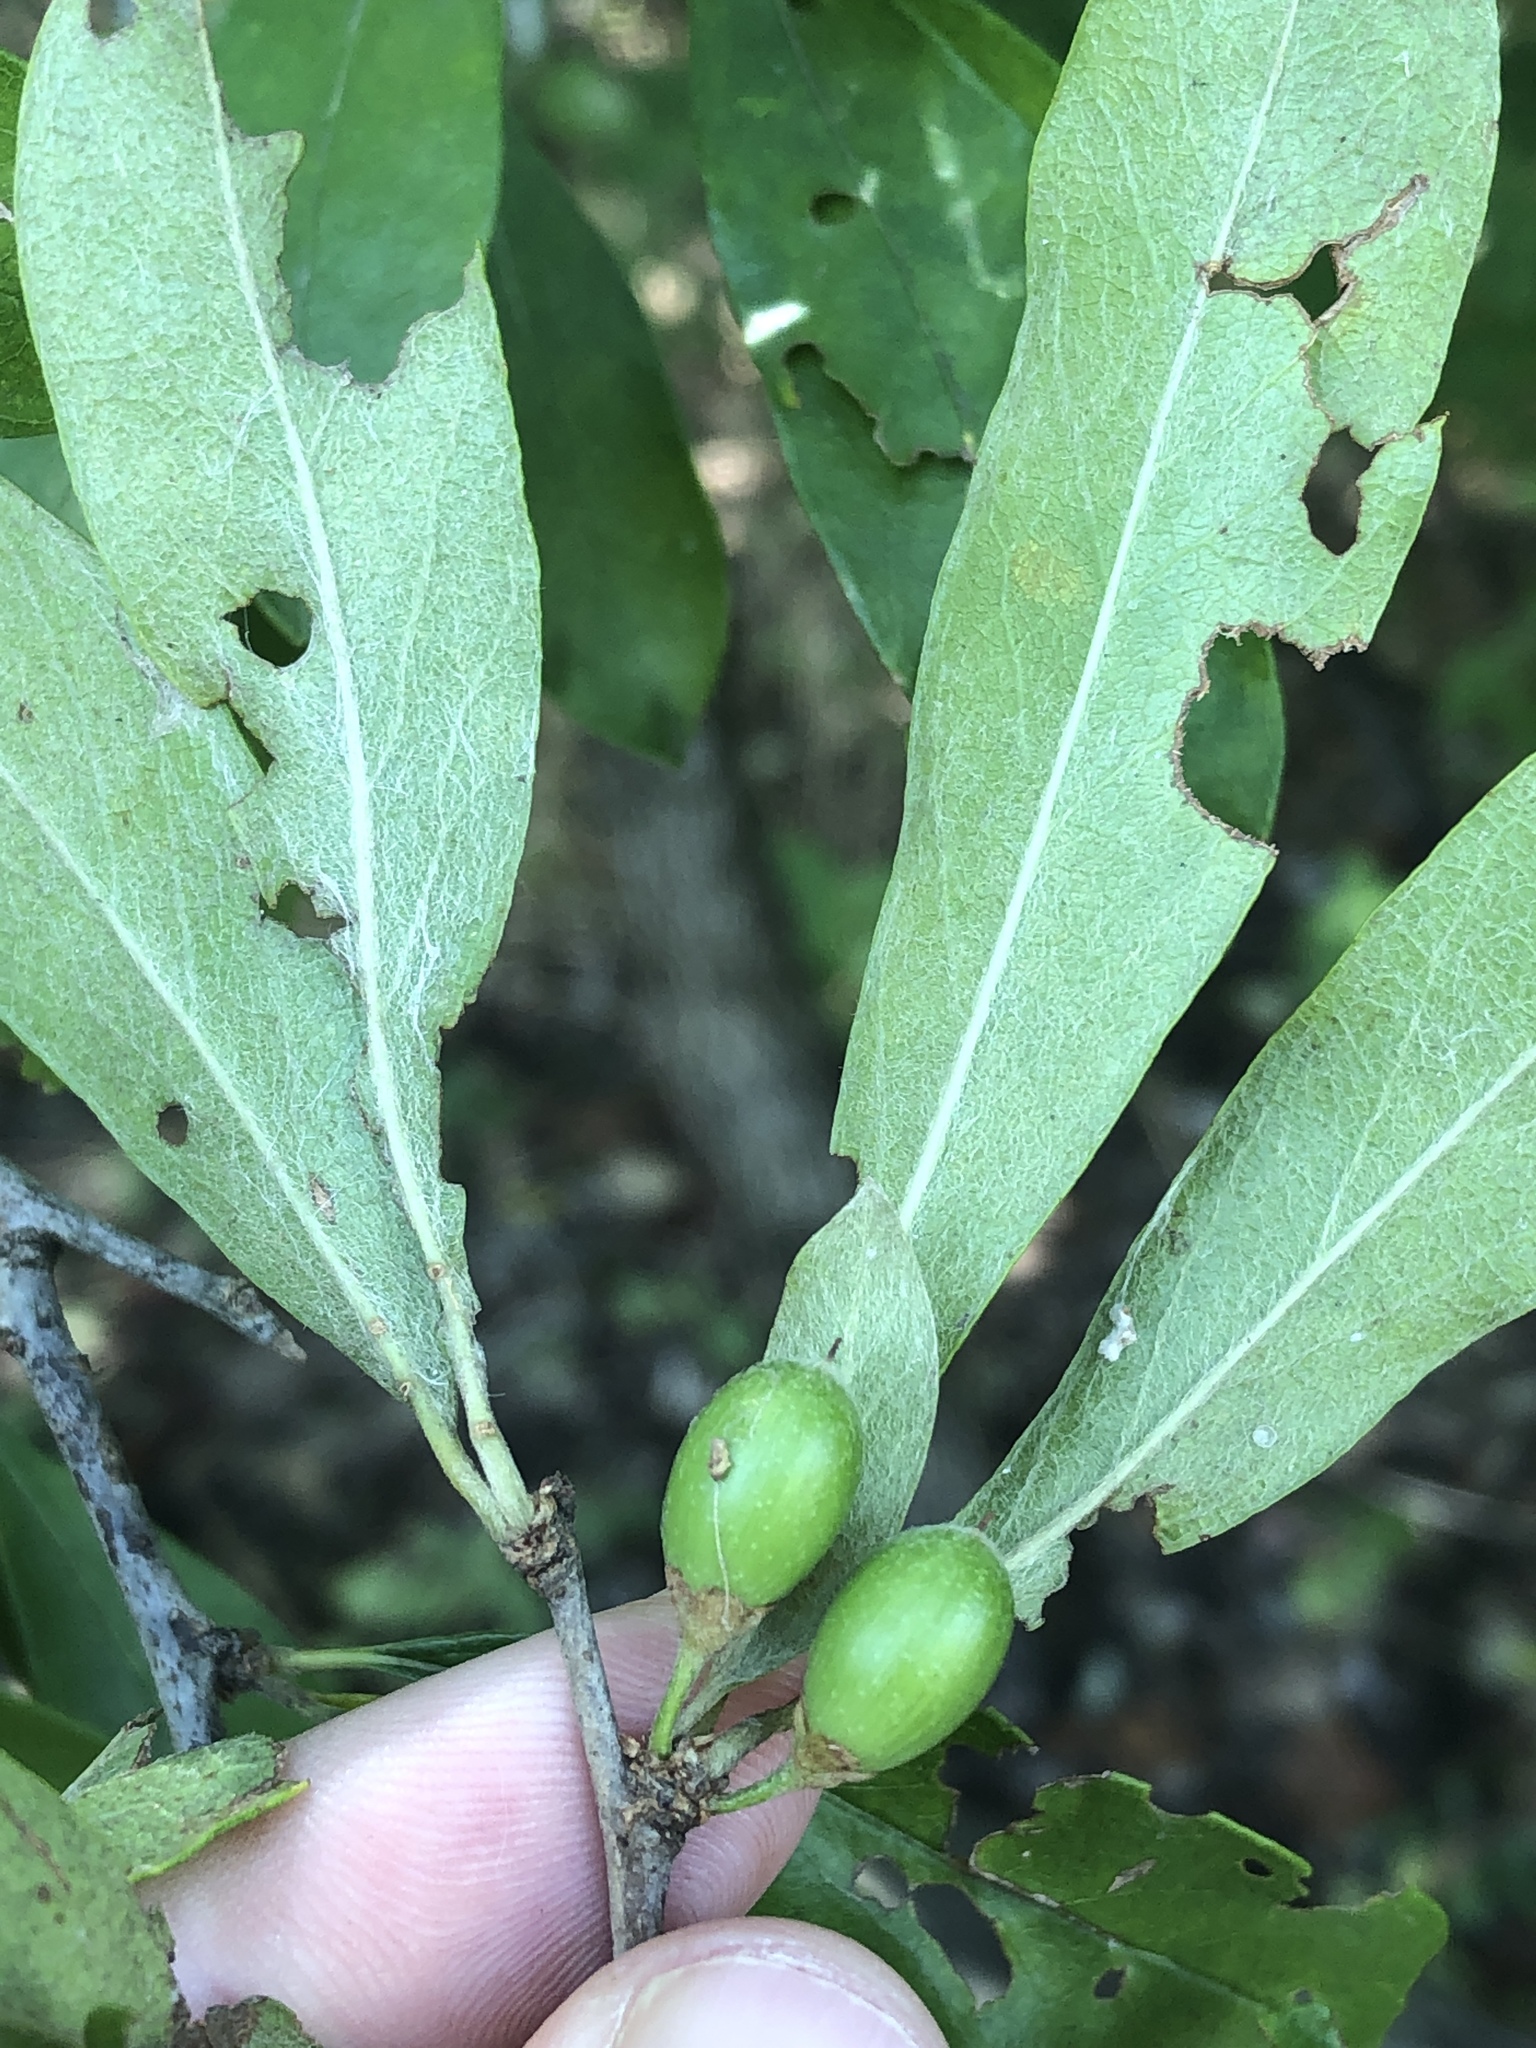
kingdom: Plantae
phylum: Tracheophyta
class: Magnoliopsida
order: Ericales
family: Sapotaceae
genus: Sideroxylon
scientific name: Sideroxylon lanuginosum
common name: Chittamwood
